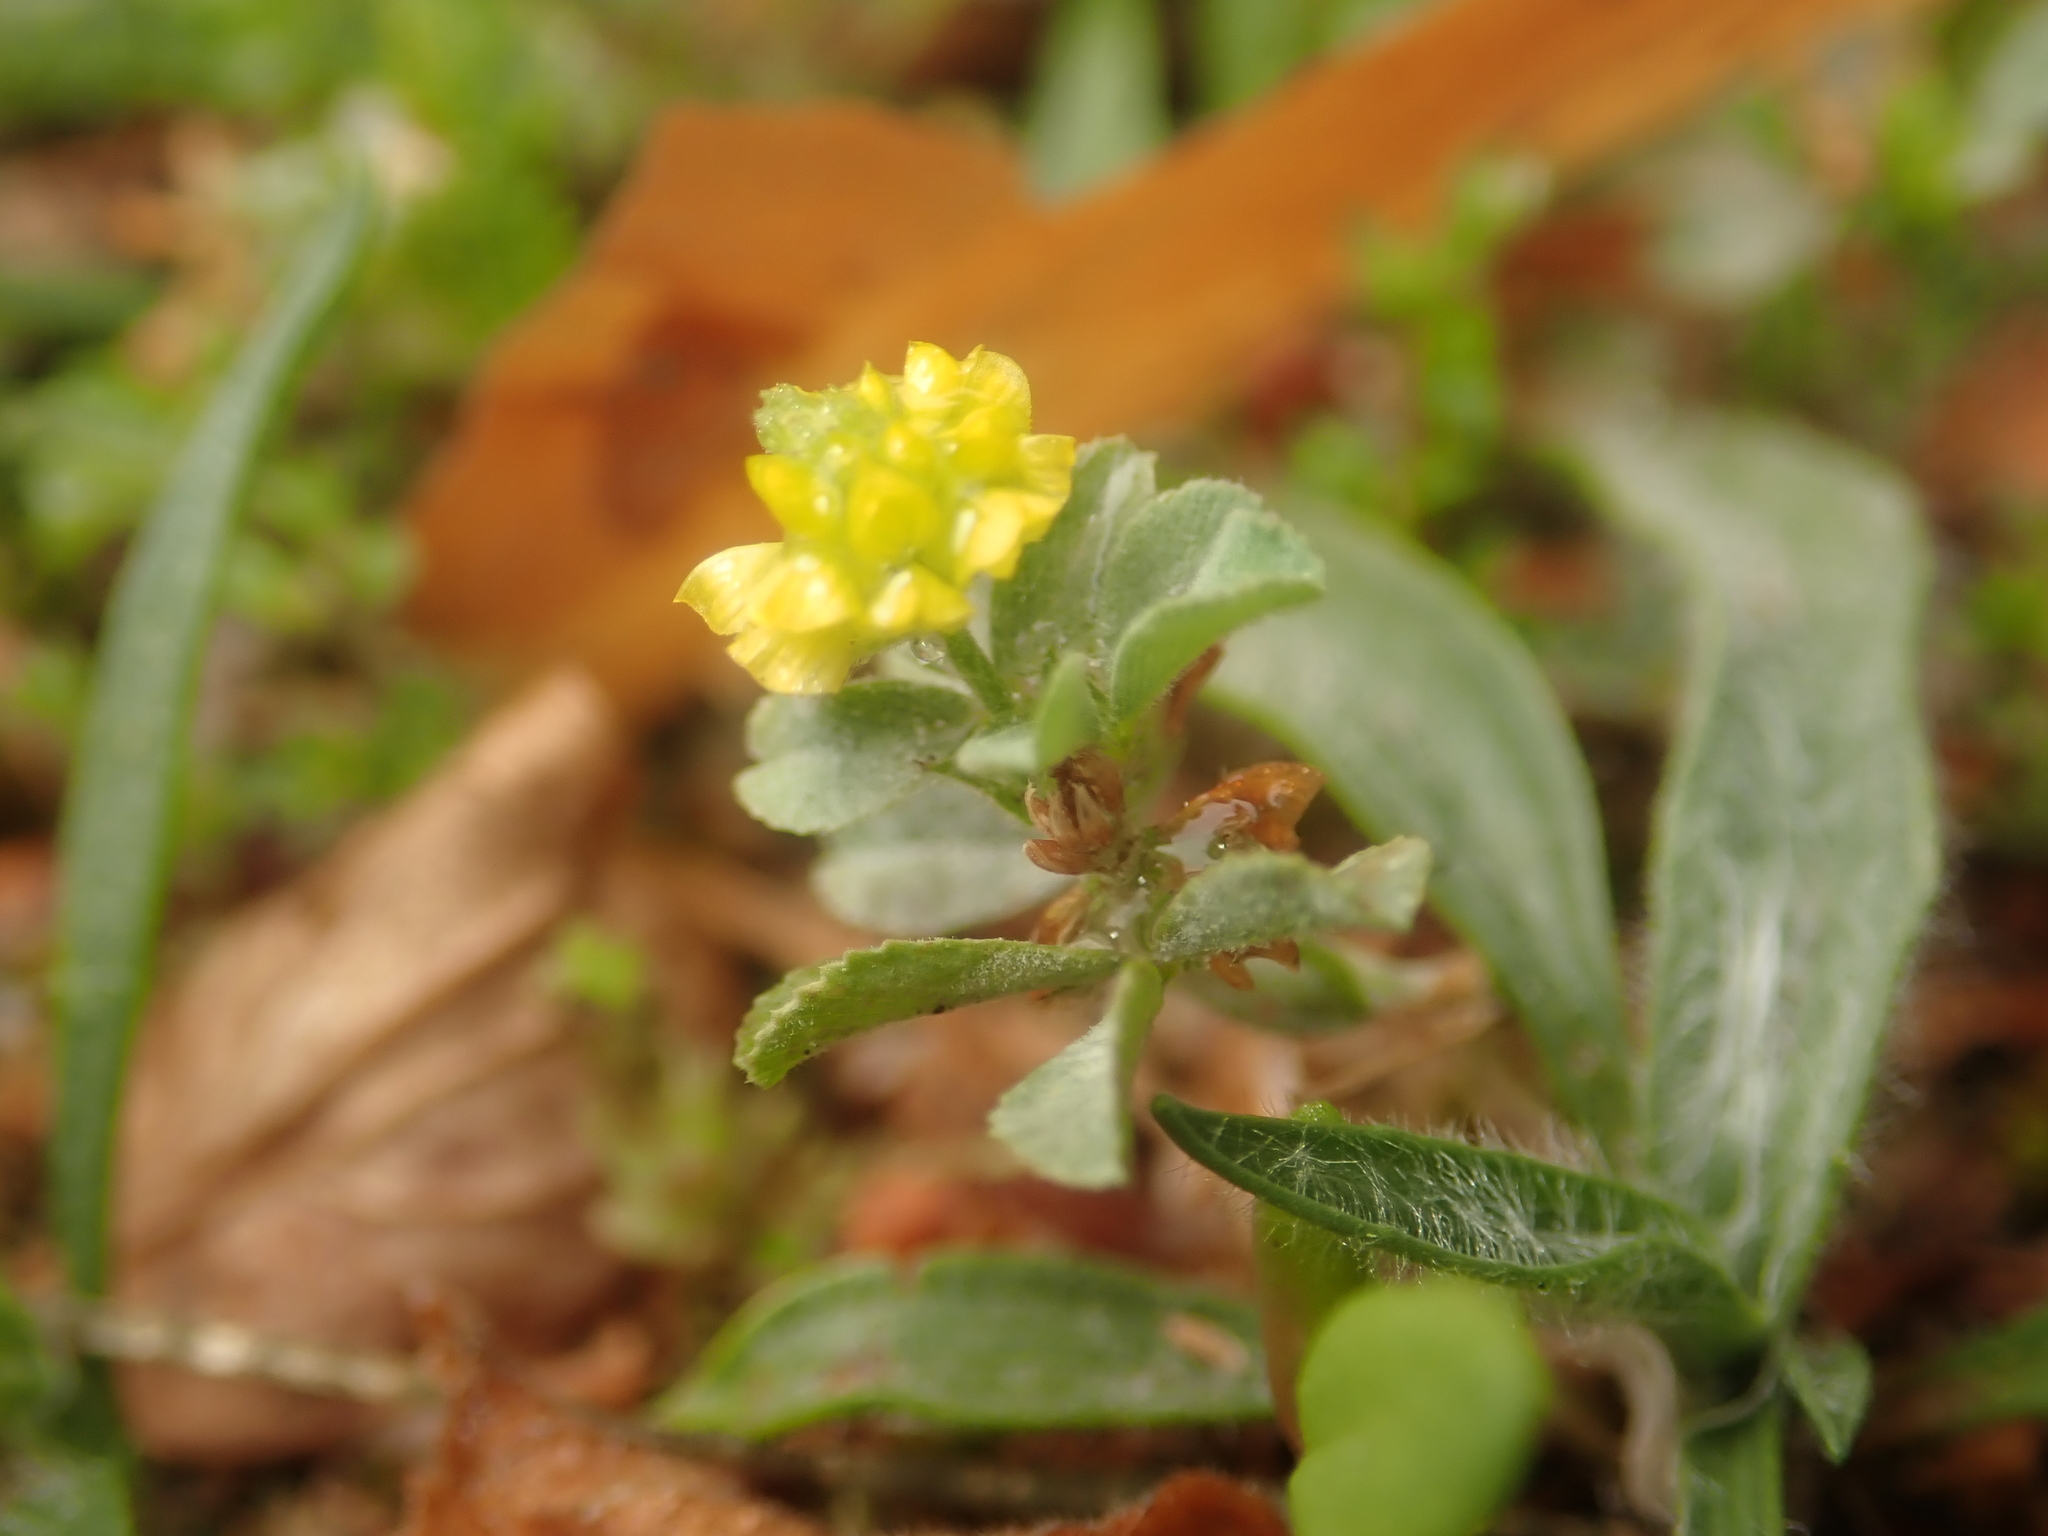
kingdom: Plantae
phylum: Tracheophyta
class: Magnoliopsida
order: Fabales
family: Fabaceae
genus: Trifolium
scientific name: Trifolium campestre
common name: Field clover
